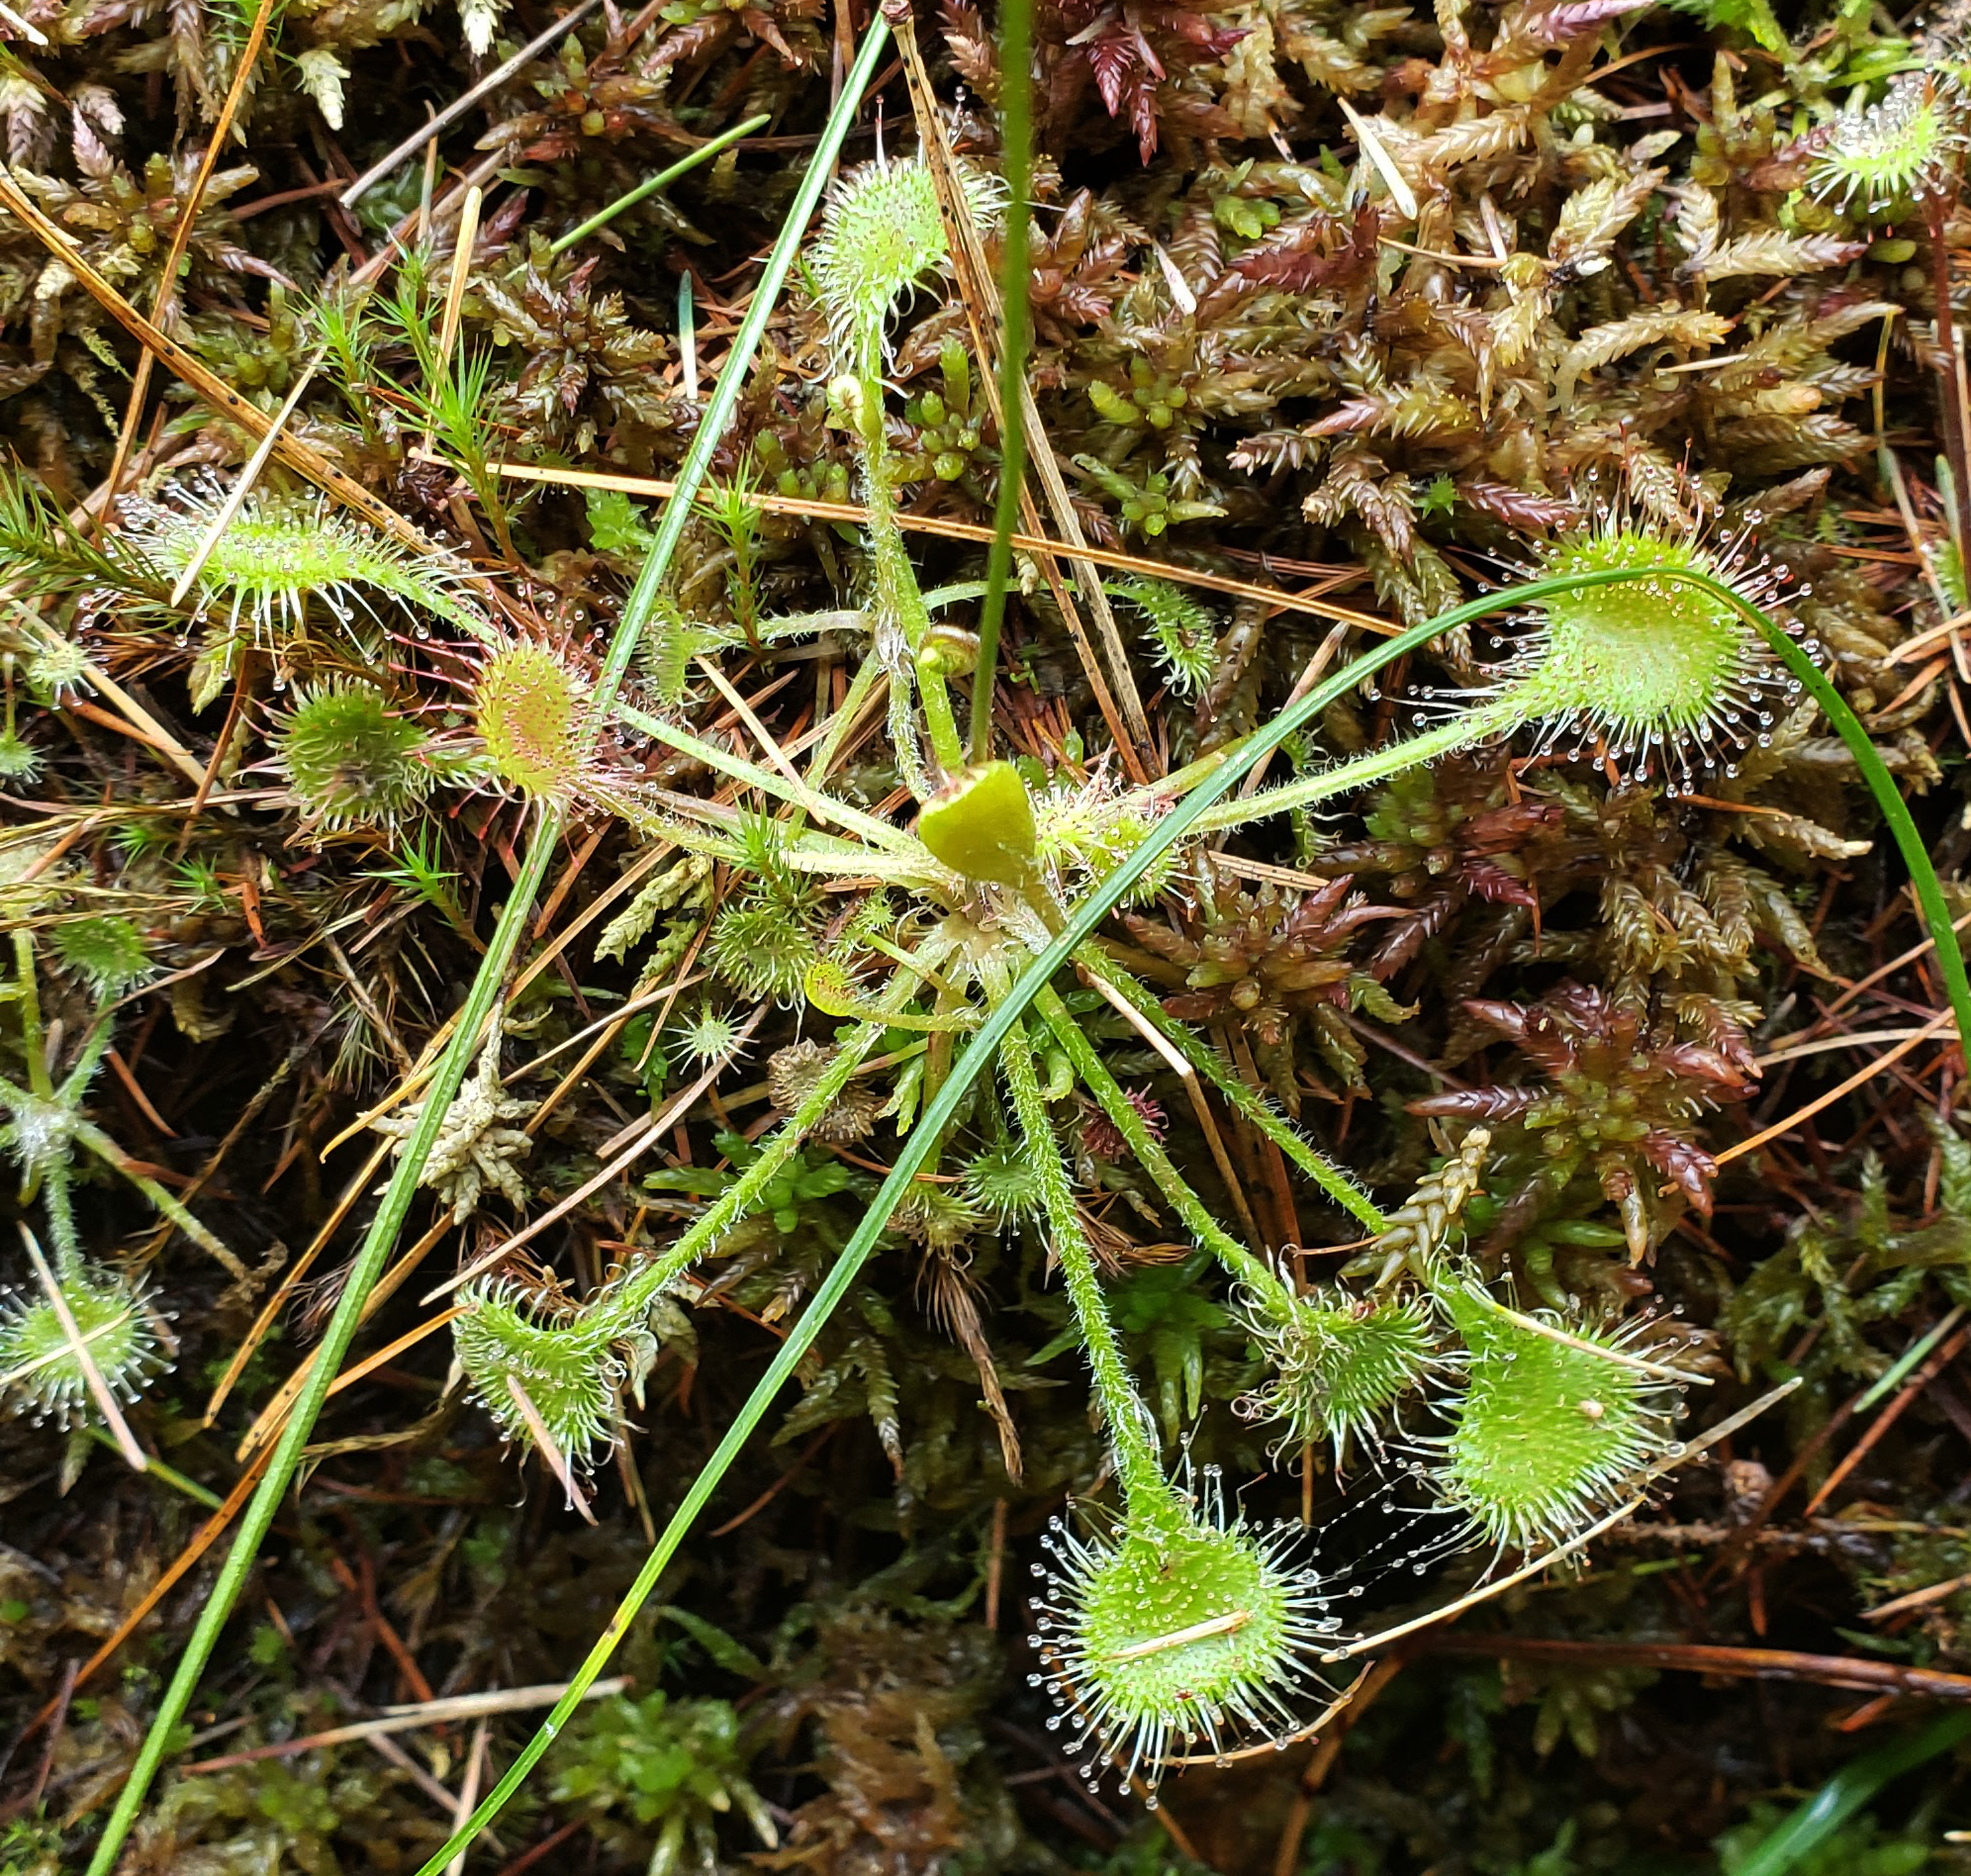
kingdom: Plantae
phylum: Tracheophyta
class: Magnoliopsida
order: Caryophyllales
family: Droseraceae
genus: Drosera
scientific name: Drosera rotundifolia
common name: Round-leaved sundew
